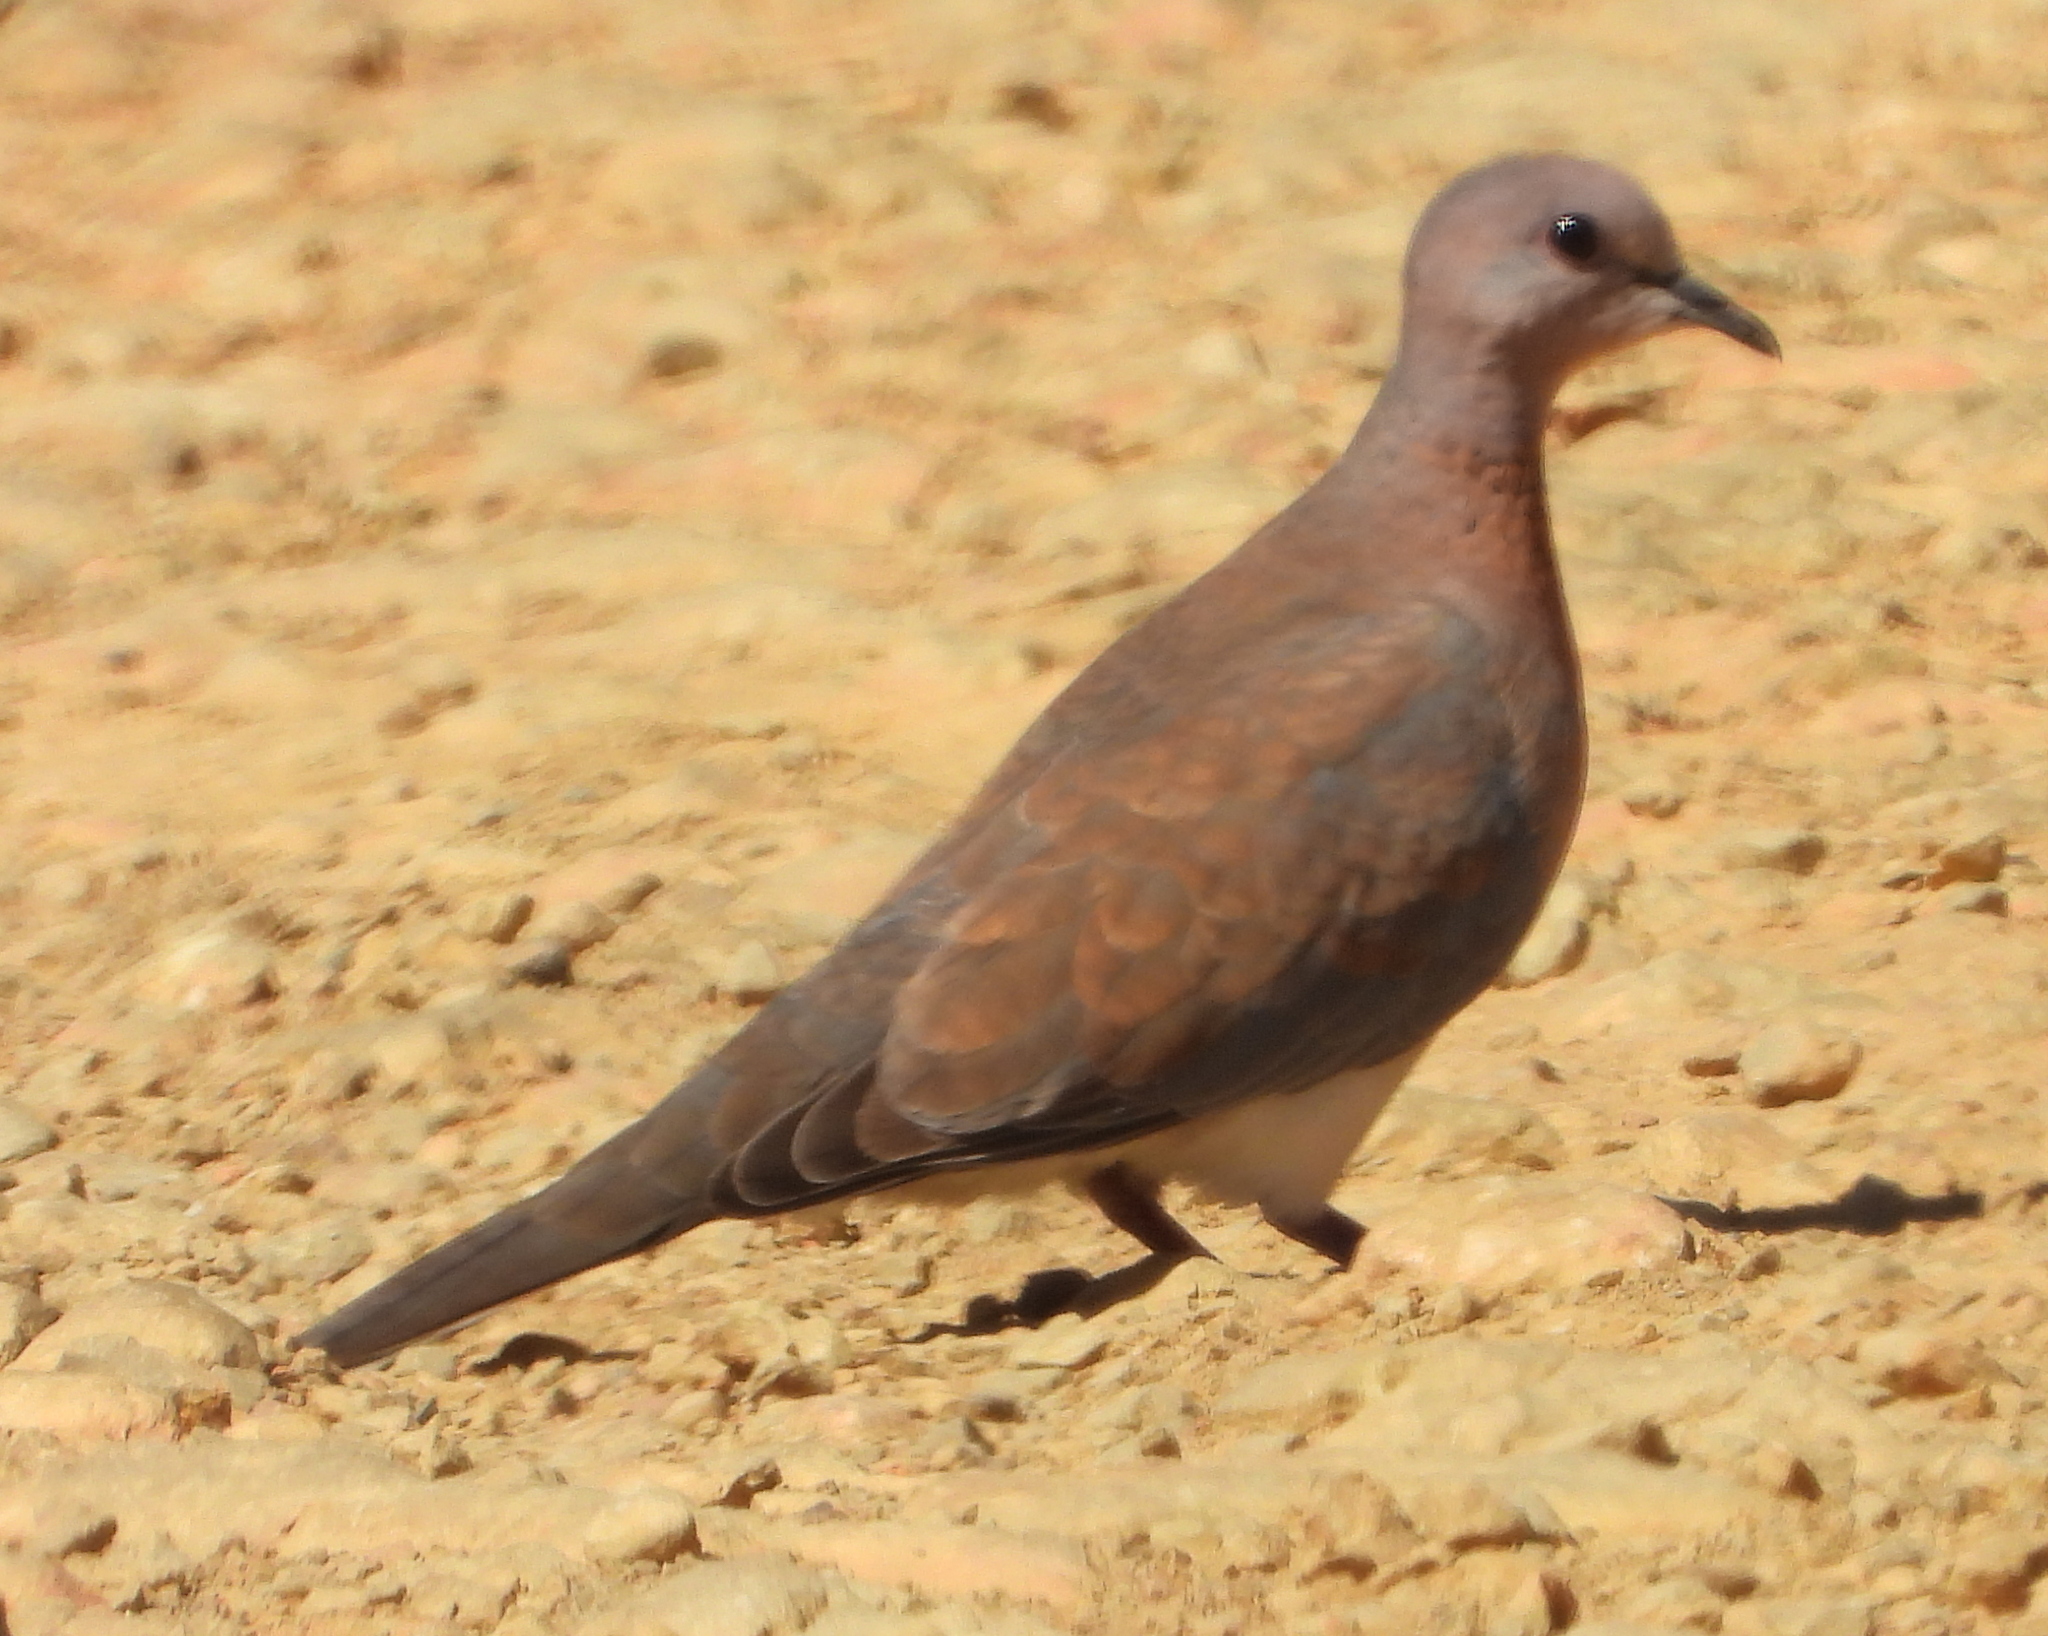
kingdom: Animalia
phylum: Chordata
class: Aves
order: Columbiformes
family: Columbidae
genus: Spilopelia
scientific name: Spilopelia senegalensis
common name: Laughing dove
